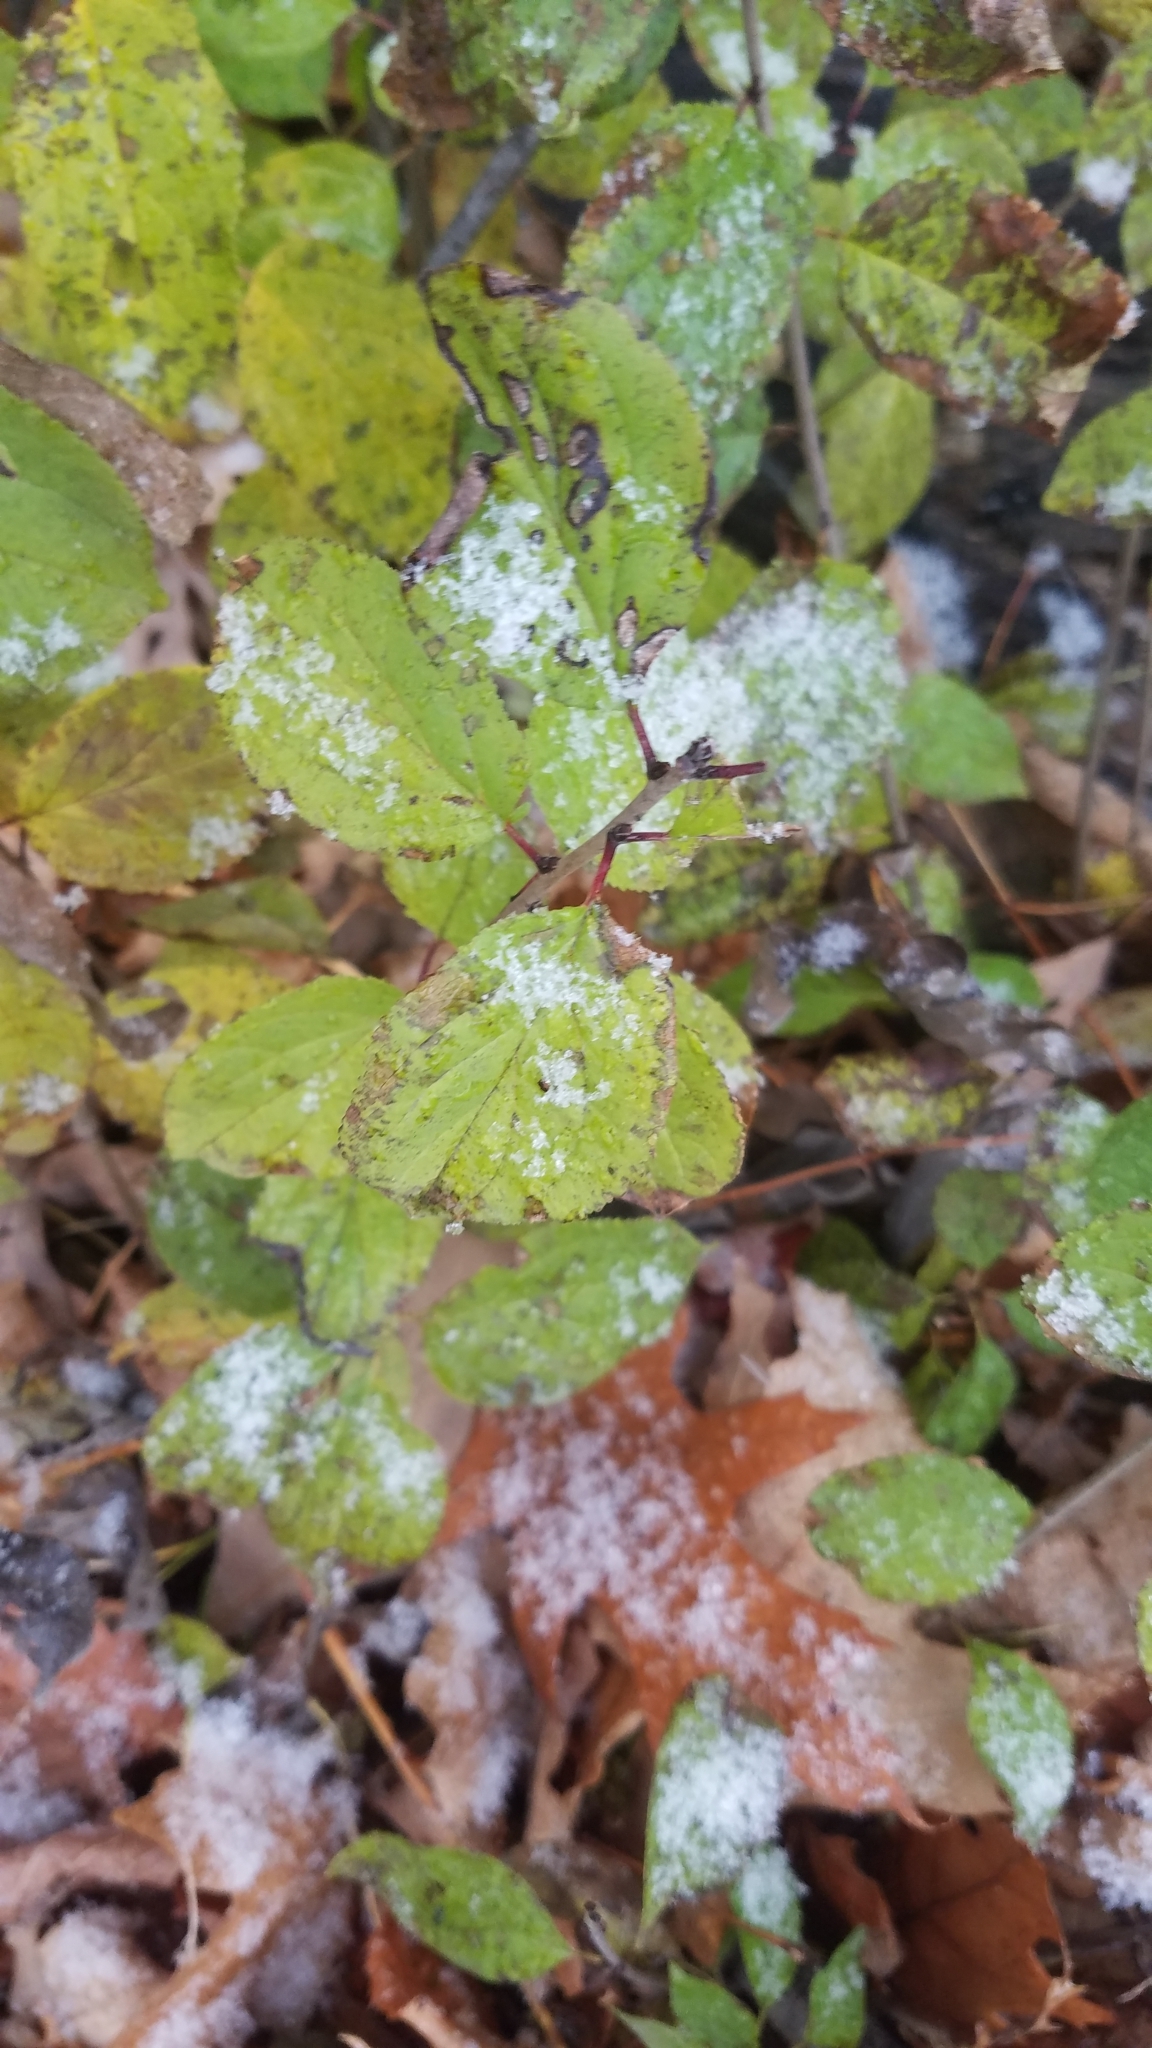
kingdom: Plantae
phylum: Tracheophyta
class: Magnoliopsida
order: Rosales
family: Rhamnaceae
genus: Rhamnus
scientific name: Rhamnus cathartica
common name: Common buckthorn
